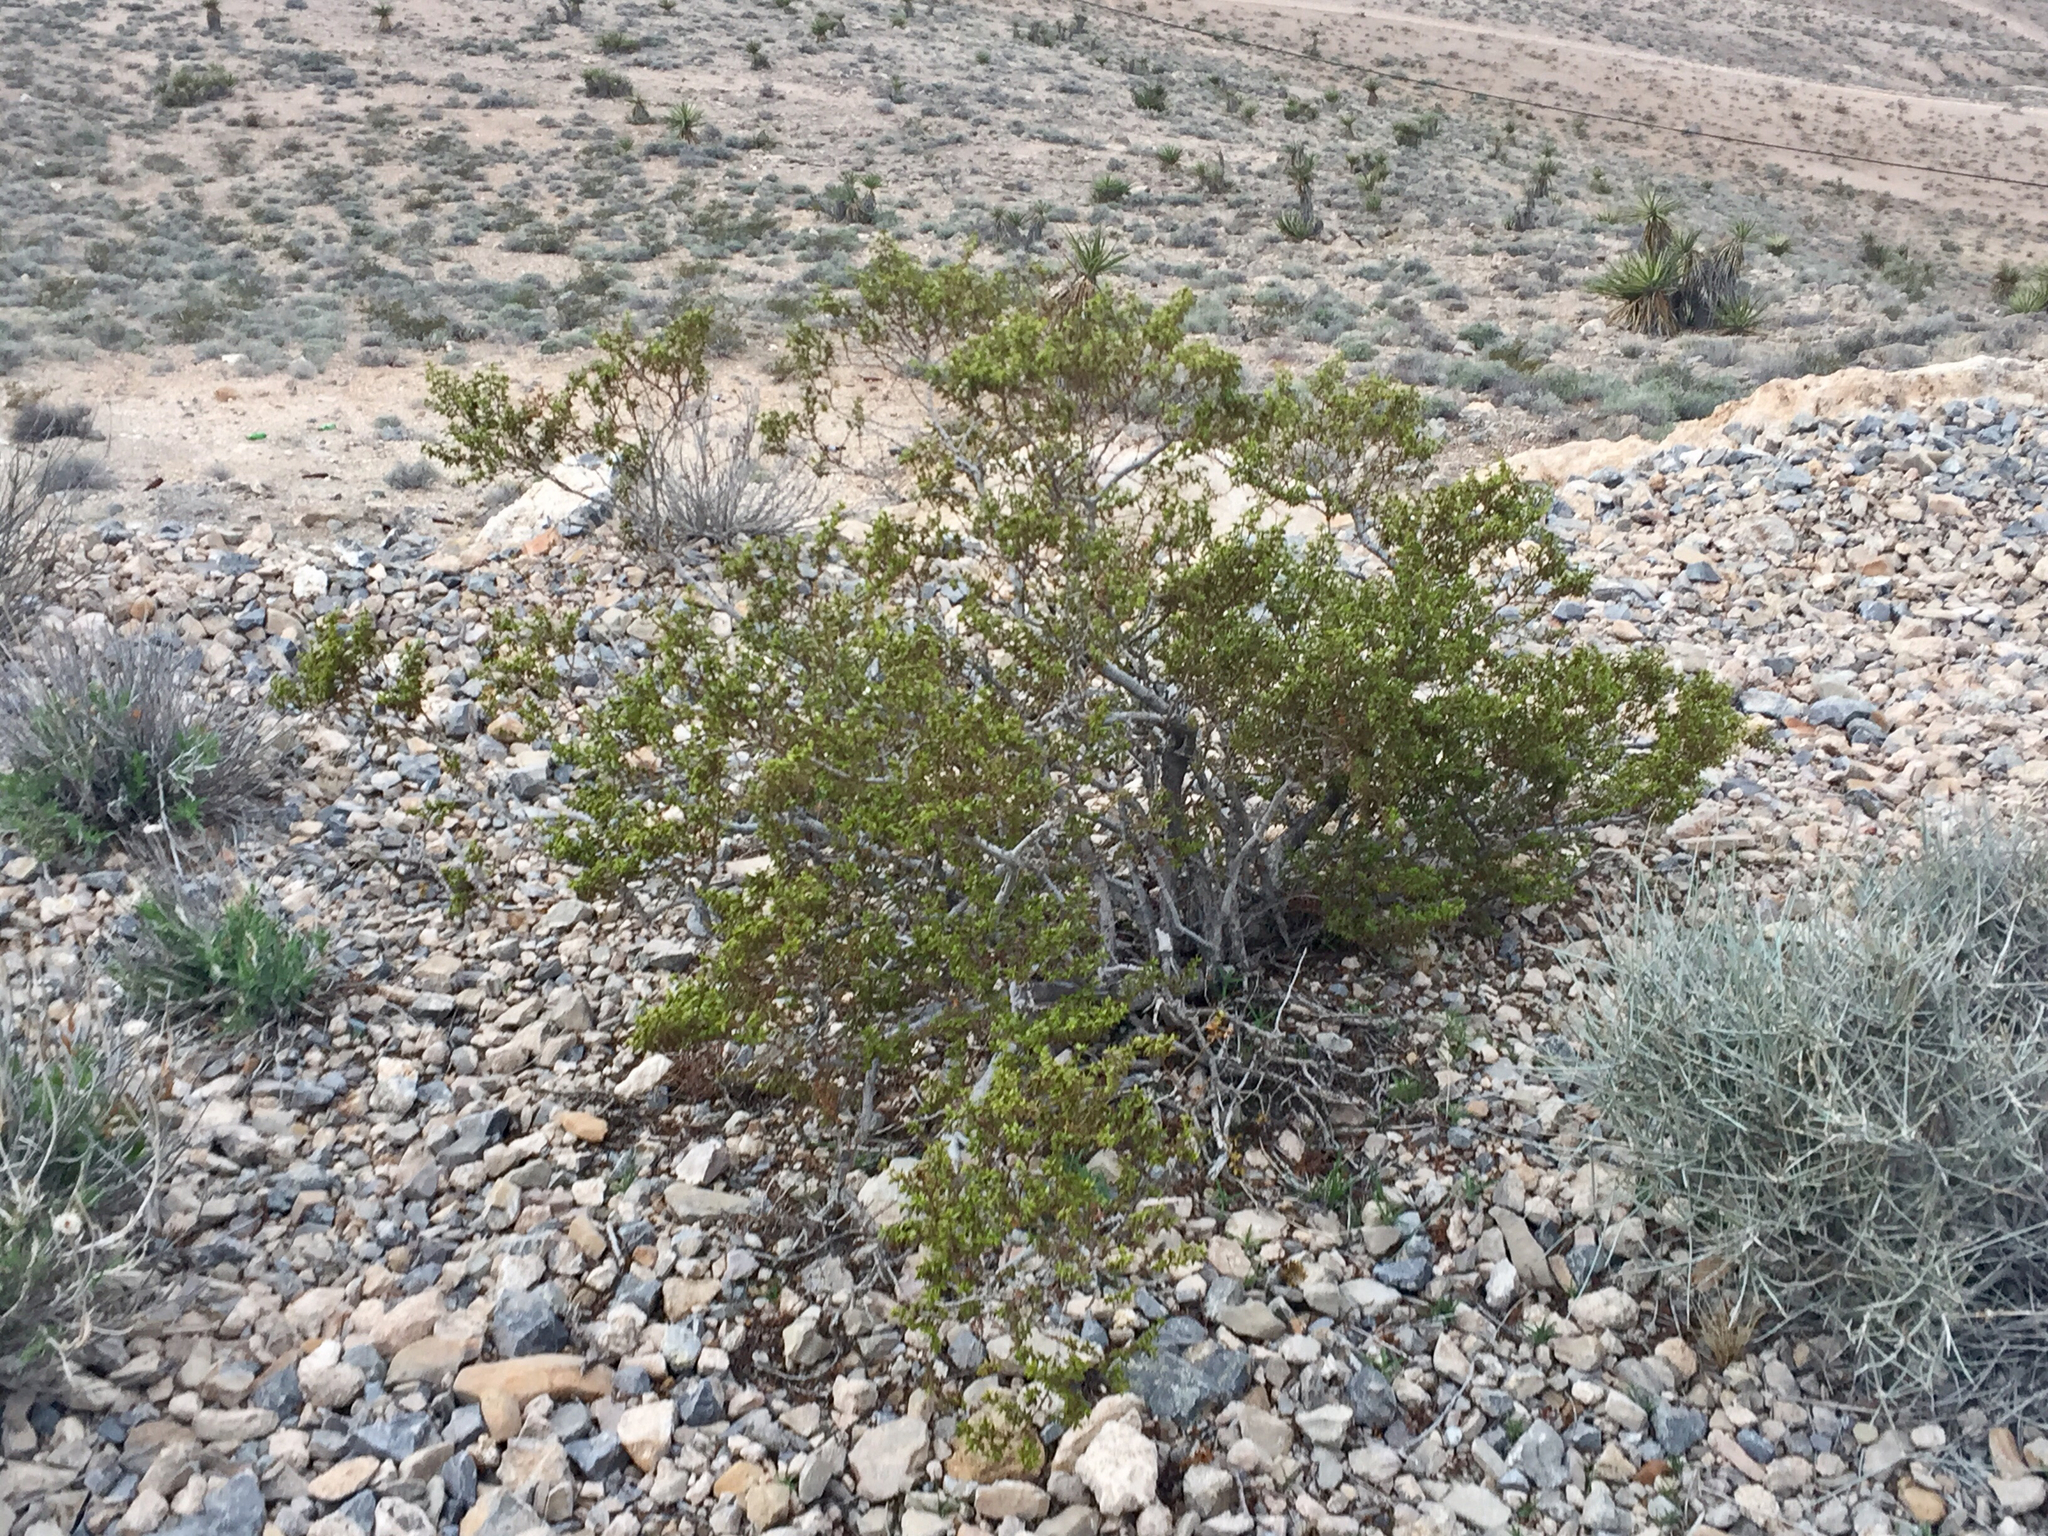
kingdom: Plantae
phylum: Tracheophyta
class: Magnoliopsida
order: Zygophyllales
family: Zygophyllaceae
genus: Larrea
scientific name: Larrea tridentata
